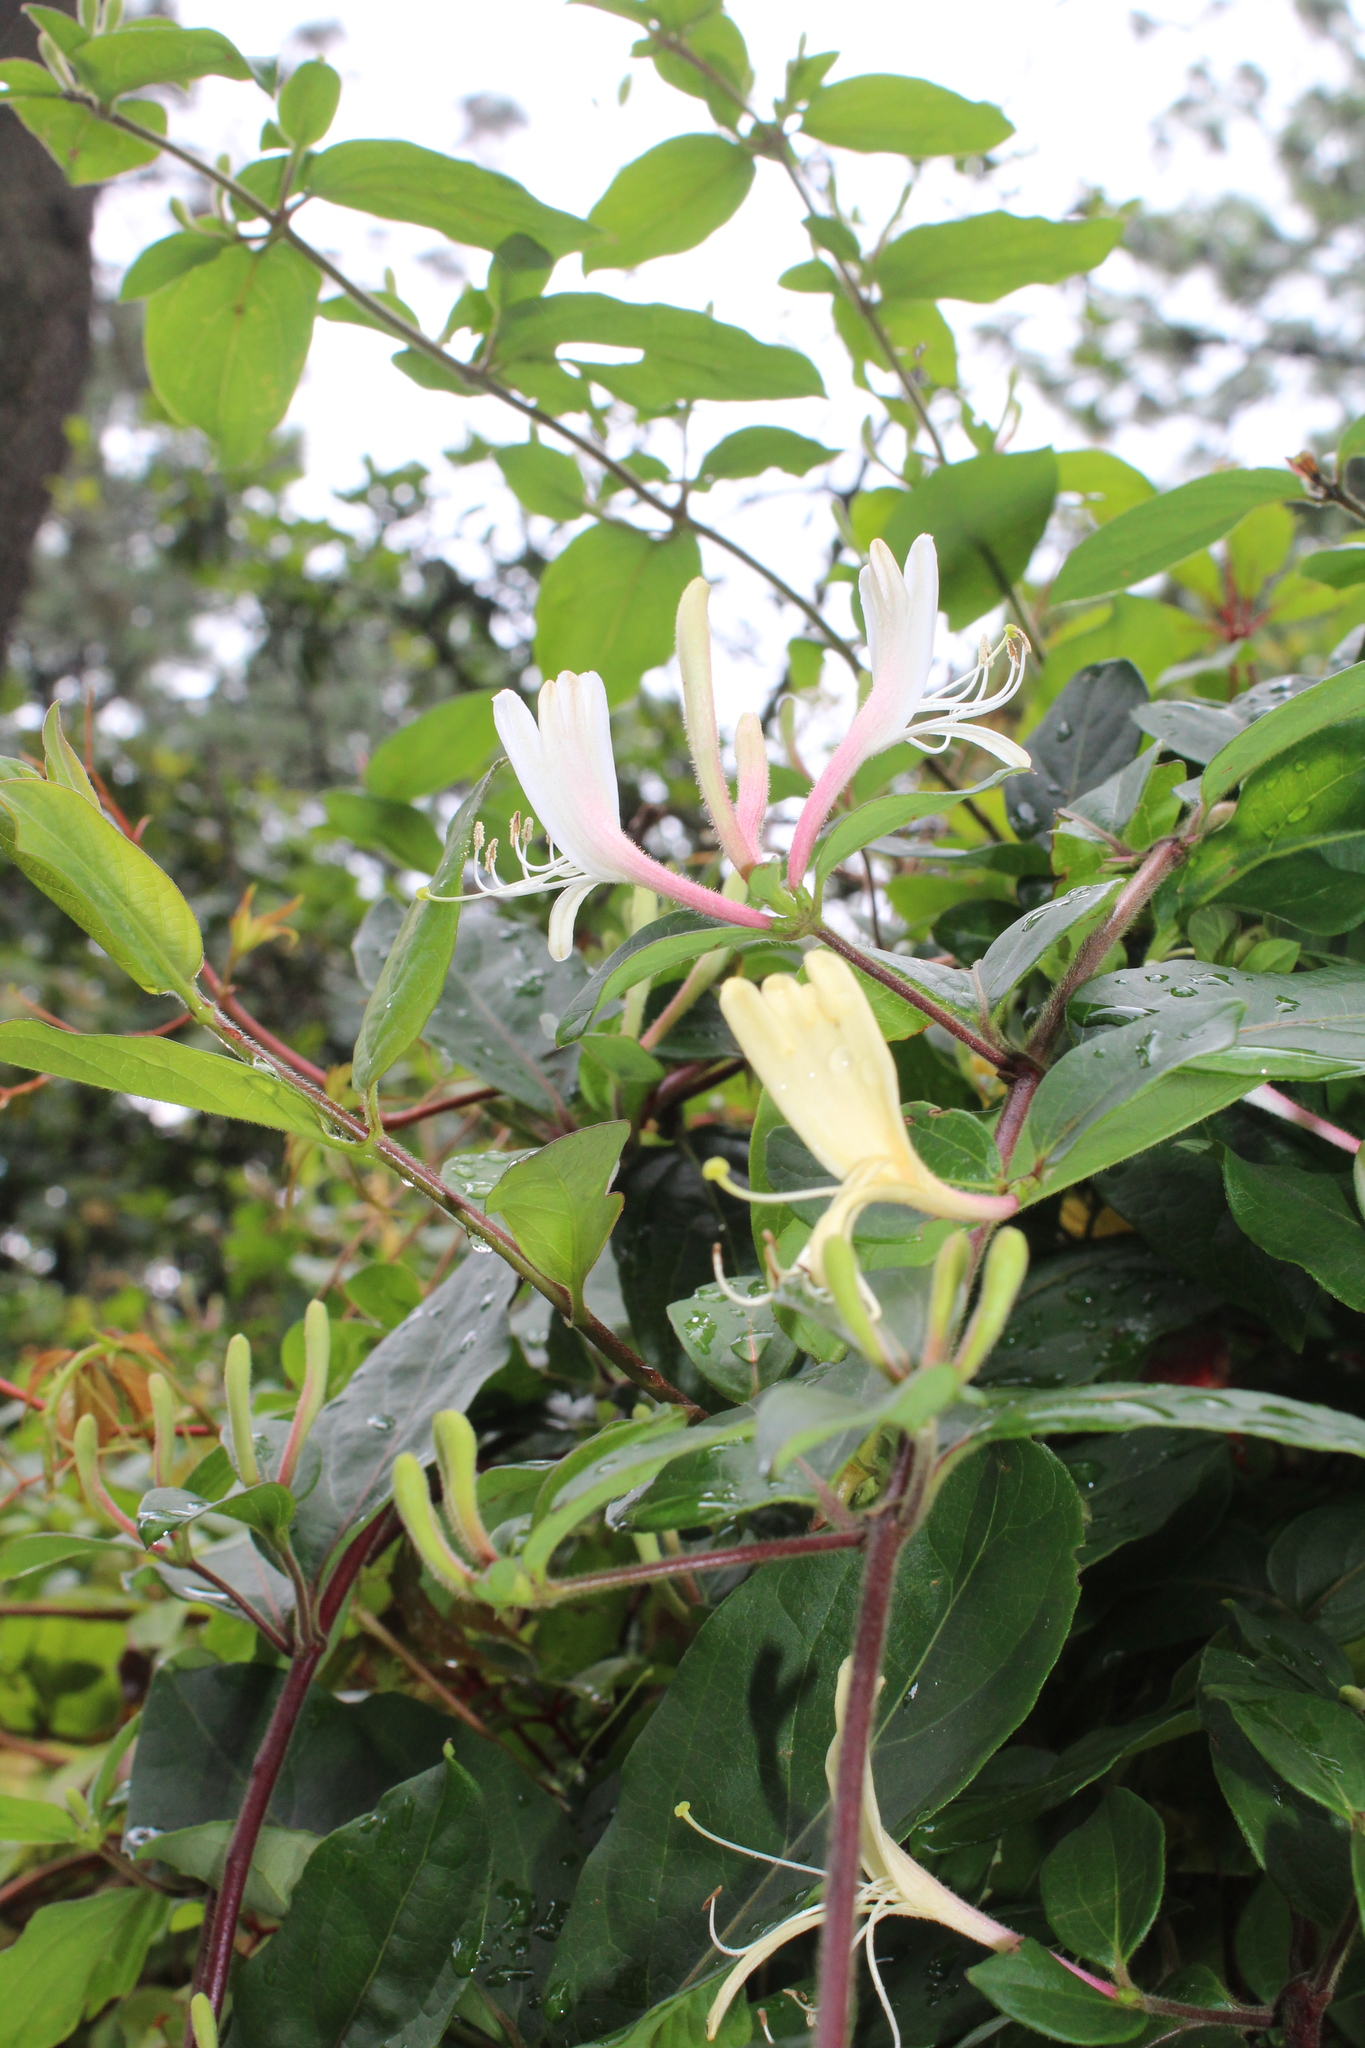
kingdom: Plantae
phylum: Tracheophyta
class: Magnoliopsida
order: Dipsacales
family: Caprifoliaceae
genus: Lonicera
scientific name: Lonicera japonica
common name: Japanese honeysuckle
